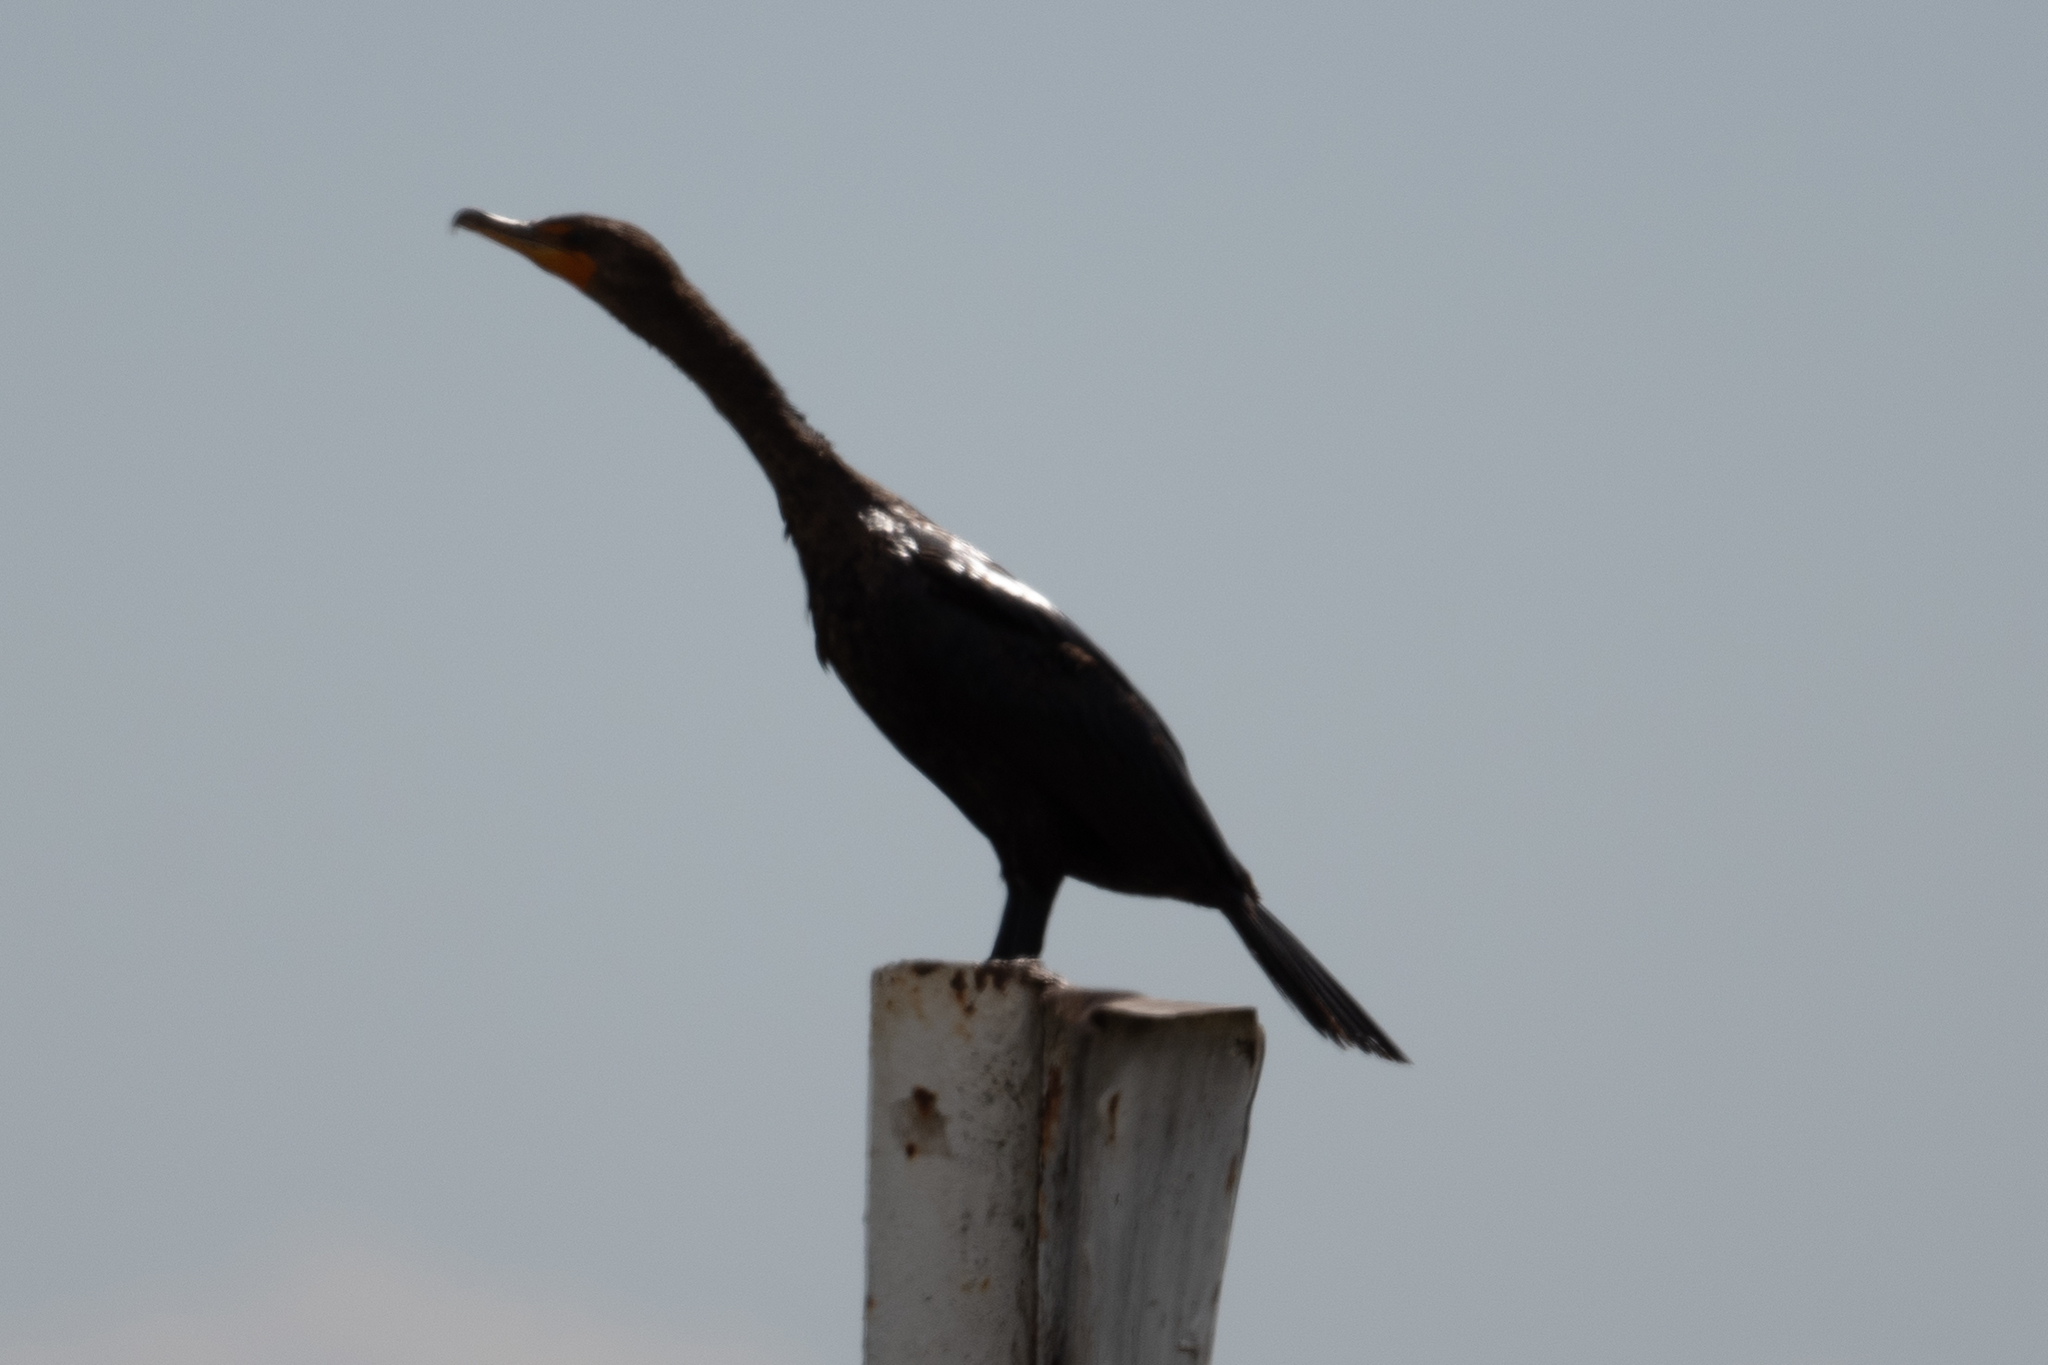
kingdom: Animalia
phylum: Chordata
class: Aves
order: Suliformes
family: Phalacrocoracidae
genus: Phalacrocorax
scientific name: Phalacrocorax auritus
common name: Double-crested cormorant
